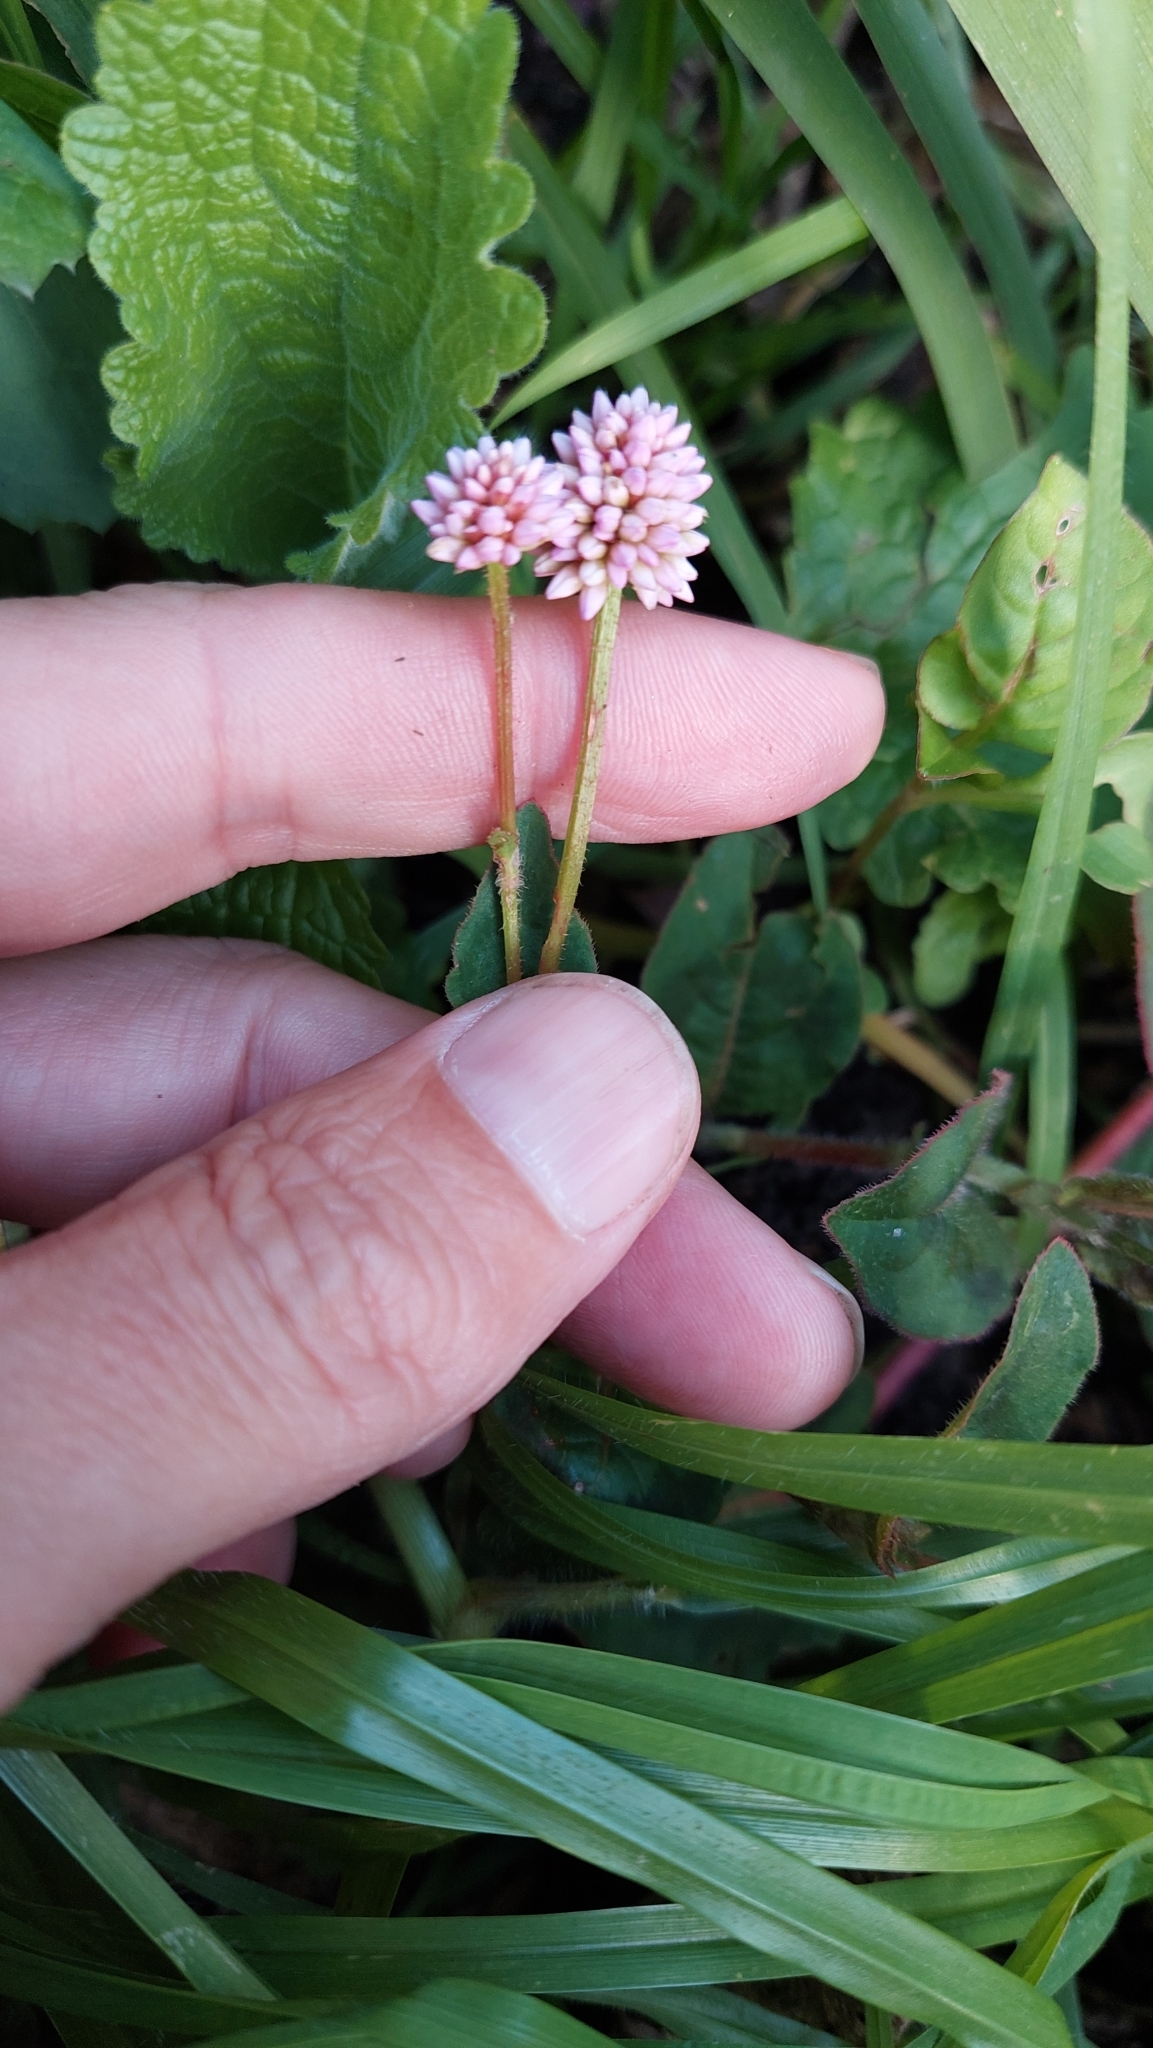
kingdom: Plantae
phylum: Tracheophyta
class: Magnoliopsida
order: Caryophyllales
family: Polygonaceae
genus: Persicaria
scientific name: Persicaria capitata
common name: Pinkhead smartweed
